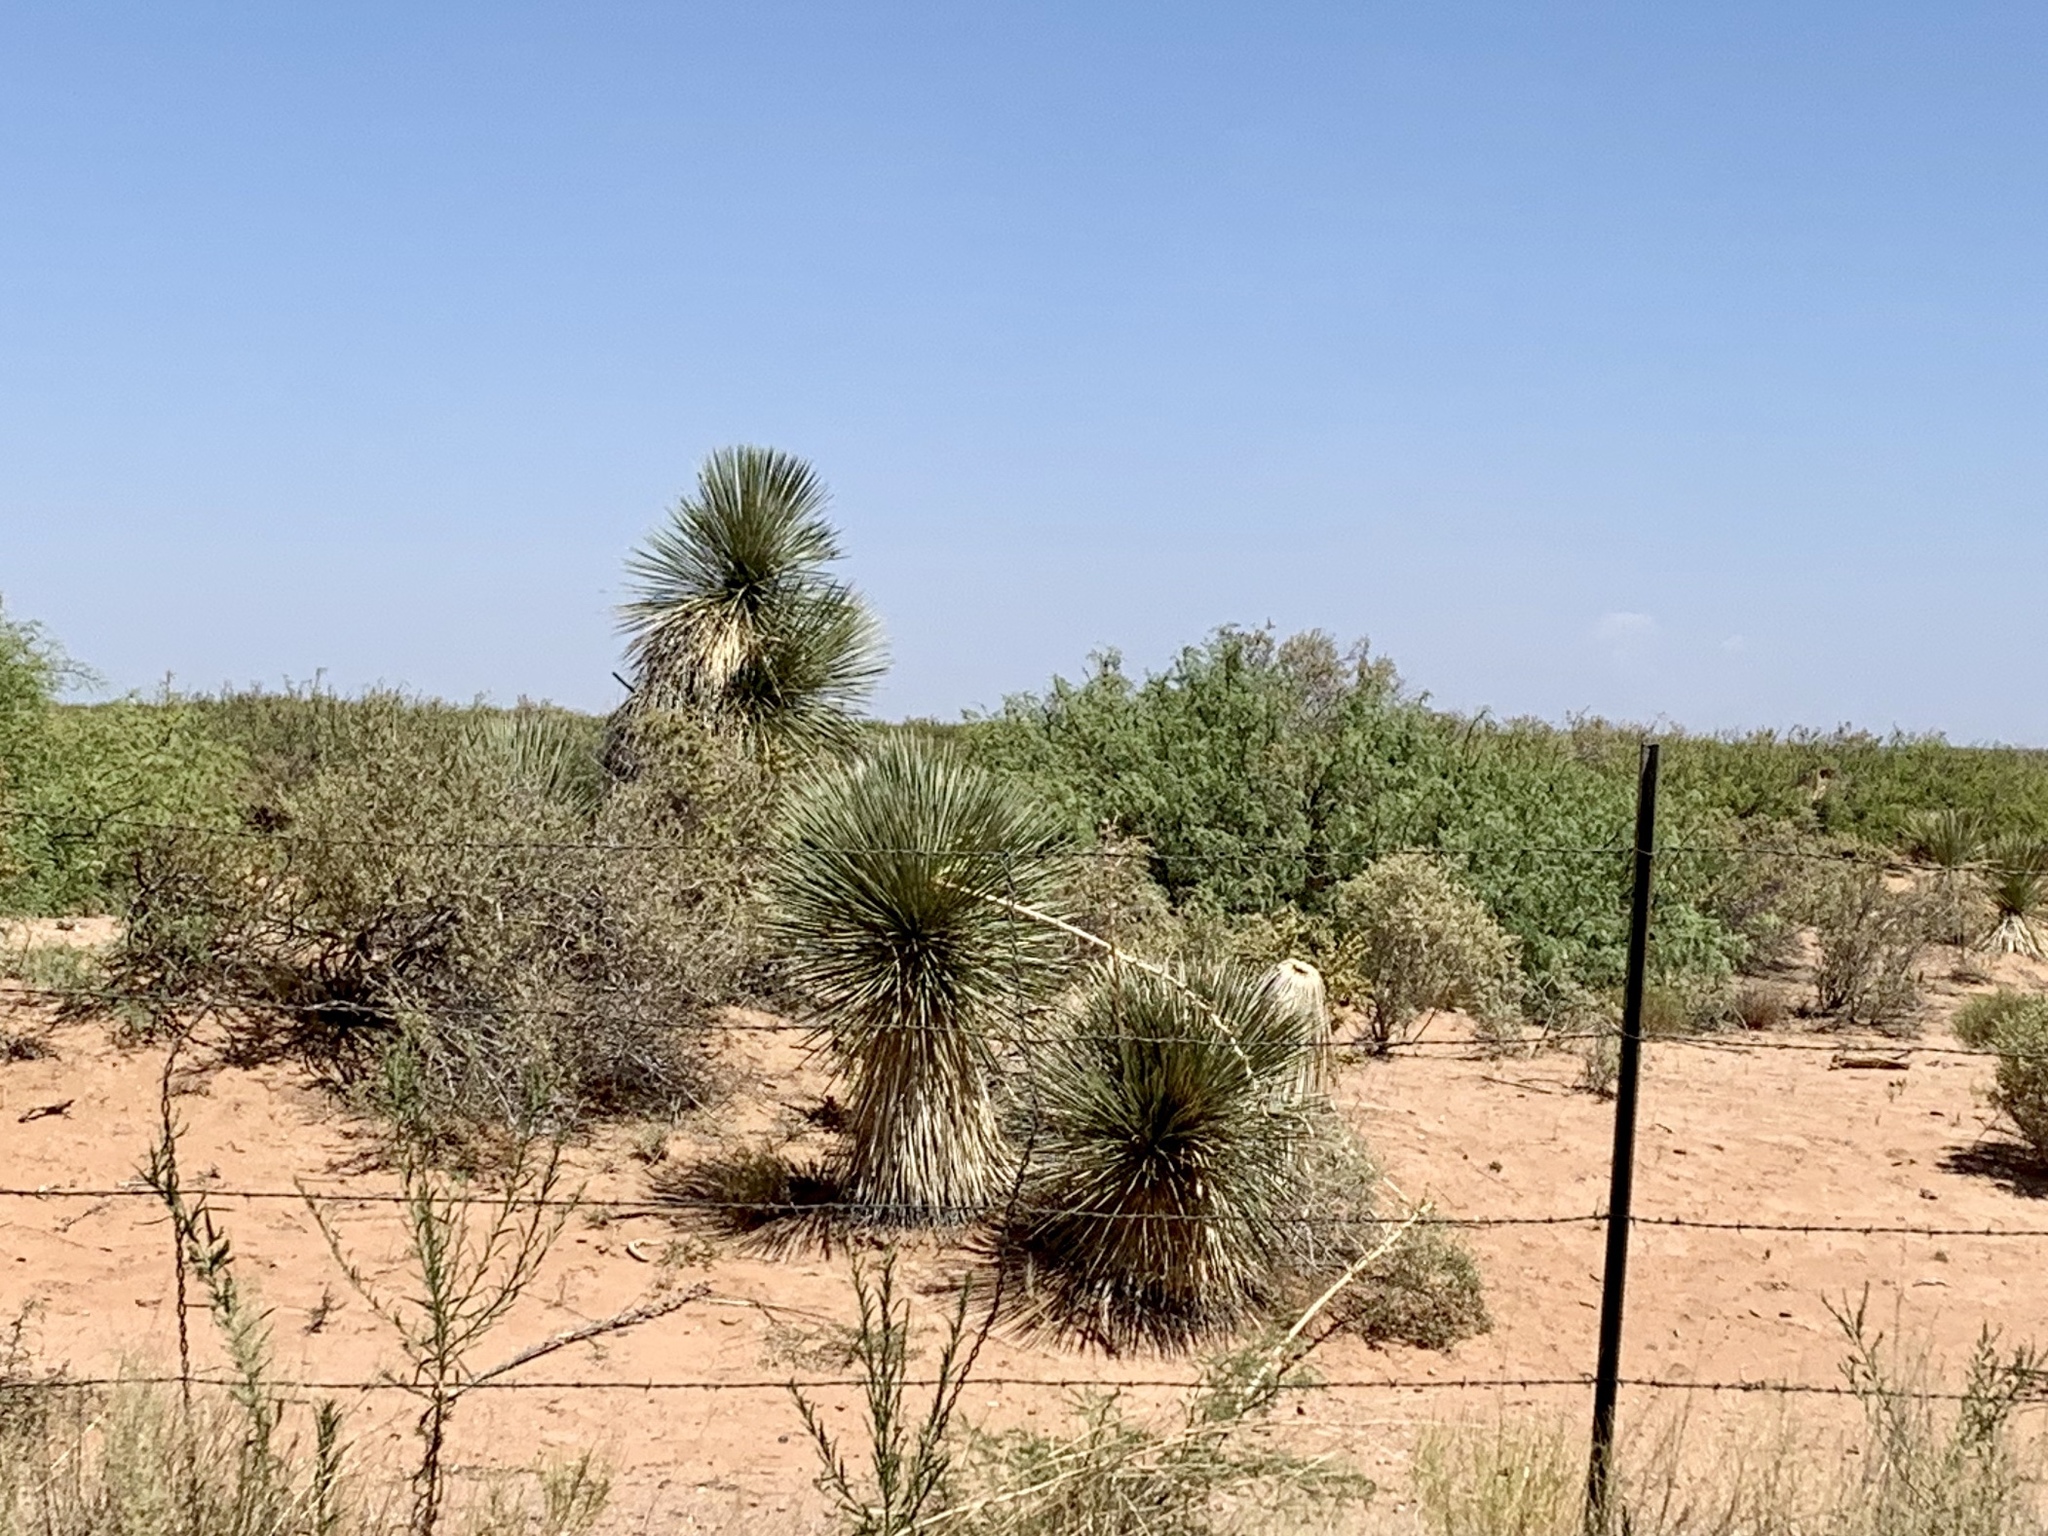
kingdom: Plantae
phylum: Tracheophyta
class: Liliopsida
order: Asparagales
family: Asparagaceae
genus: Yucca
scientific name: Yucca elata
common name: Palmella
